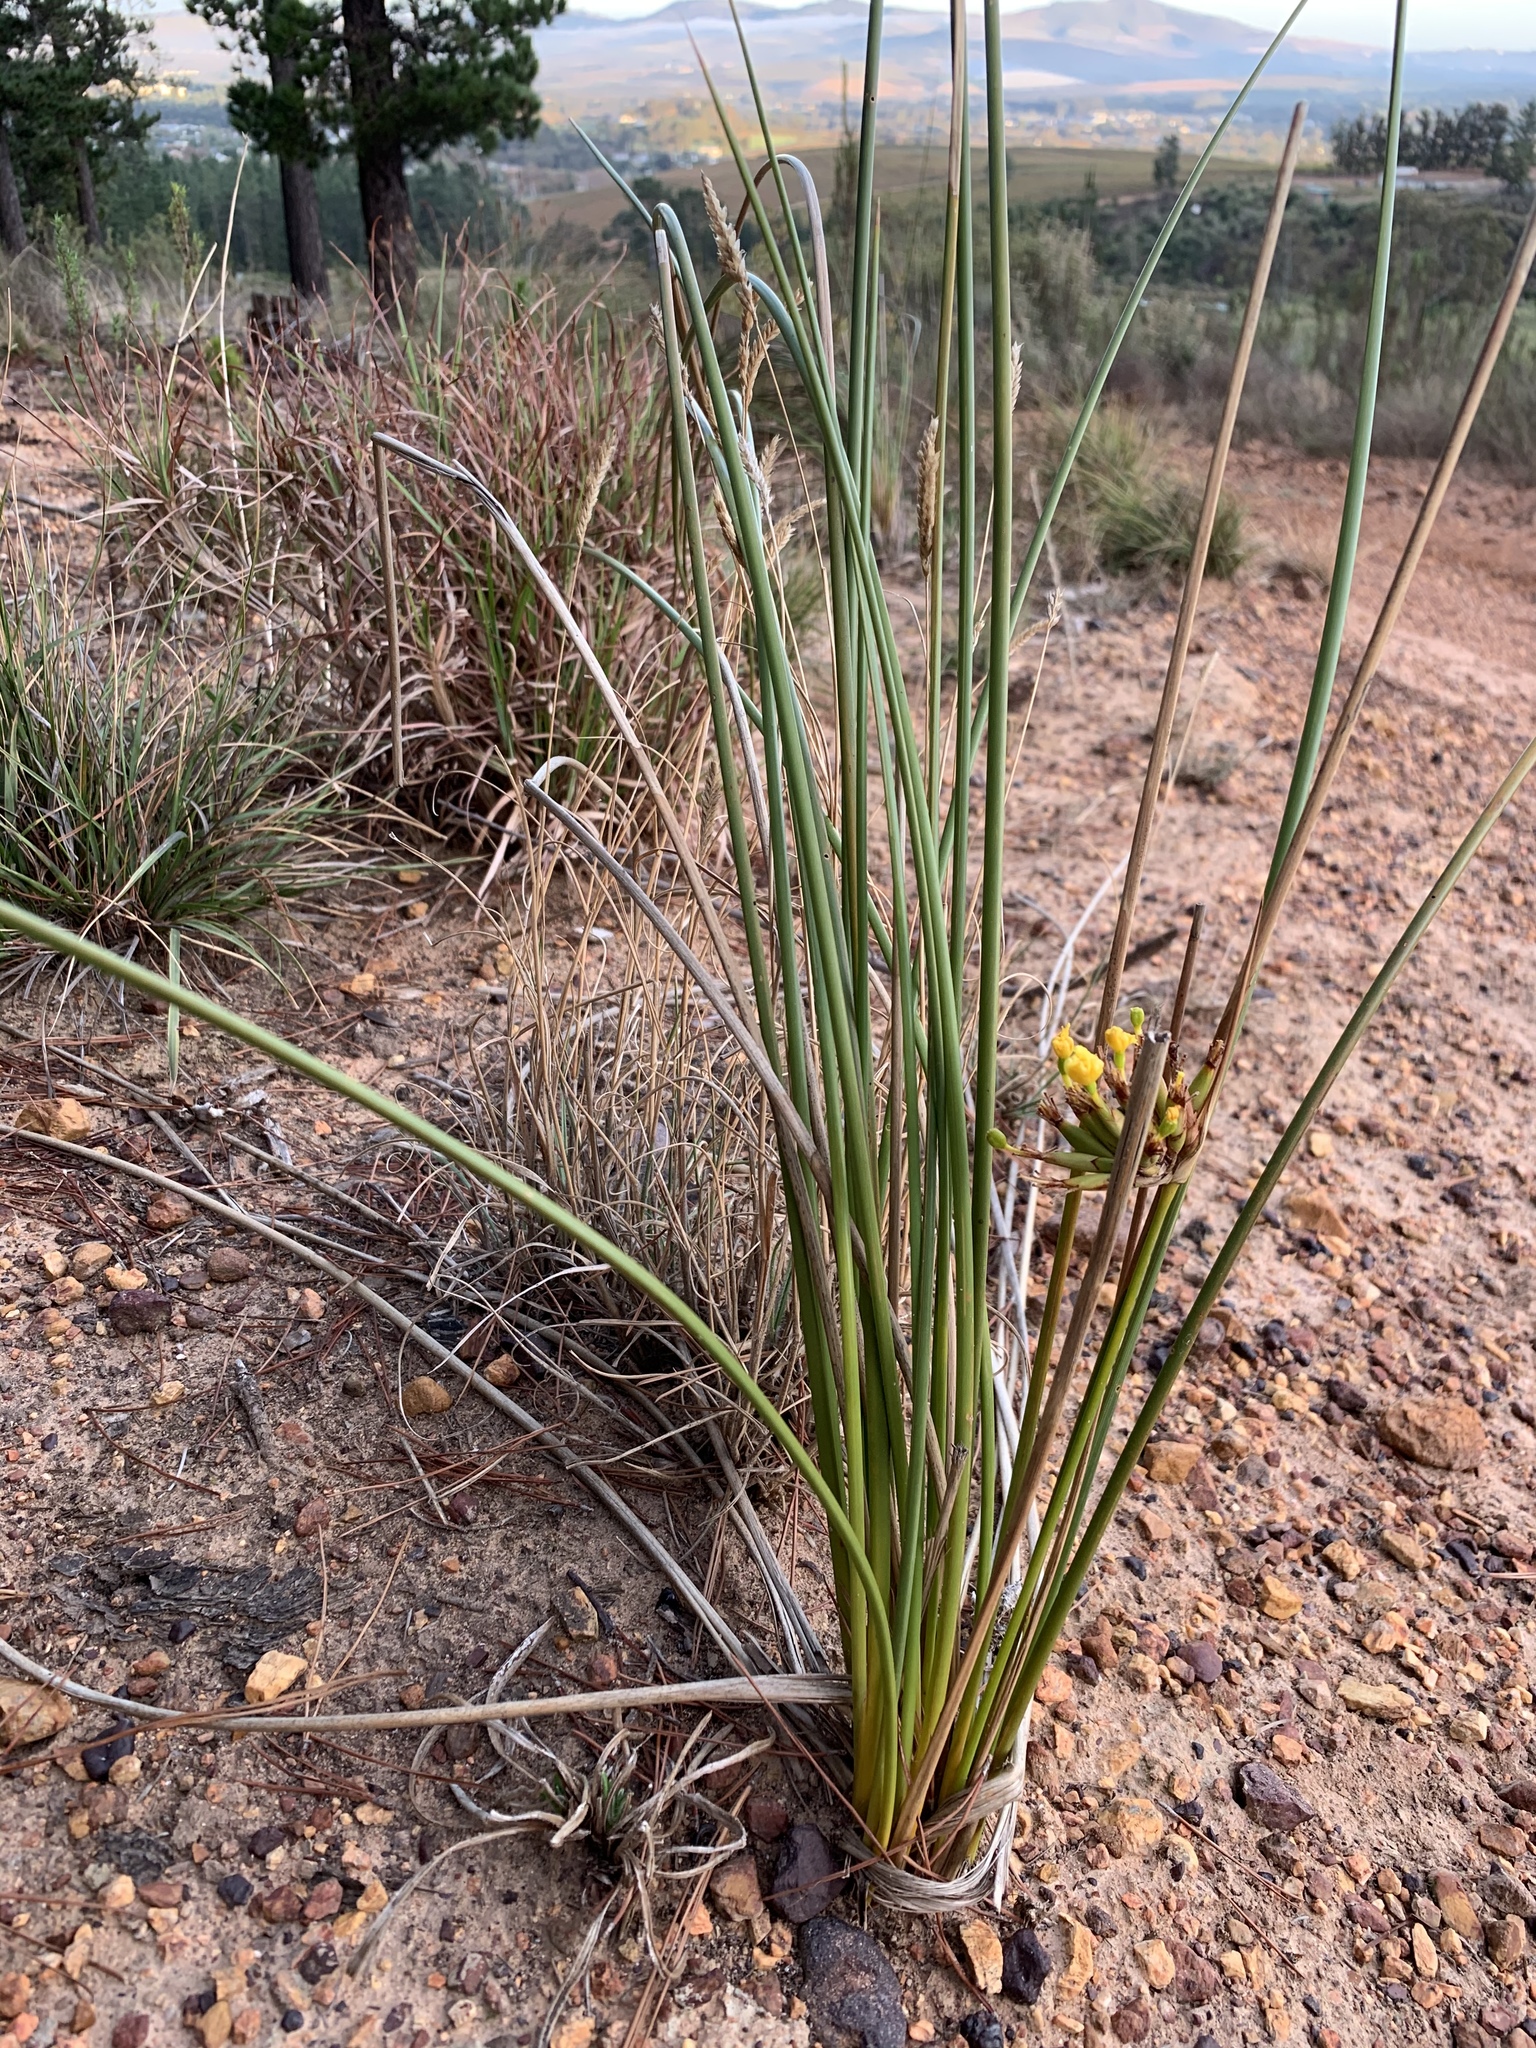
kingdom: Plantae
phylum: Tracheophyta
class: Liliopsida
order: Asparagales
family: Iridaceae
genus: Bobartia
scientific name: Bobartia indica
